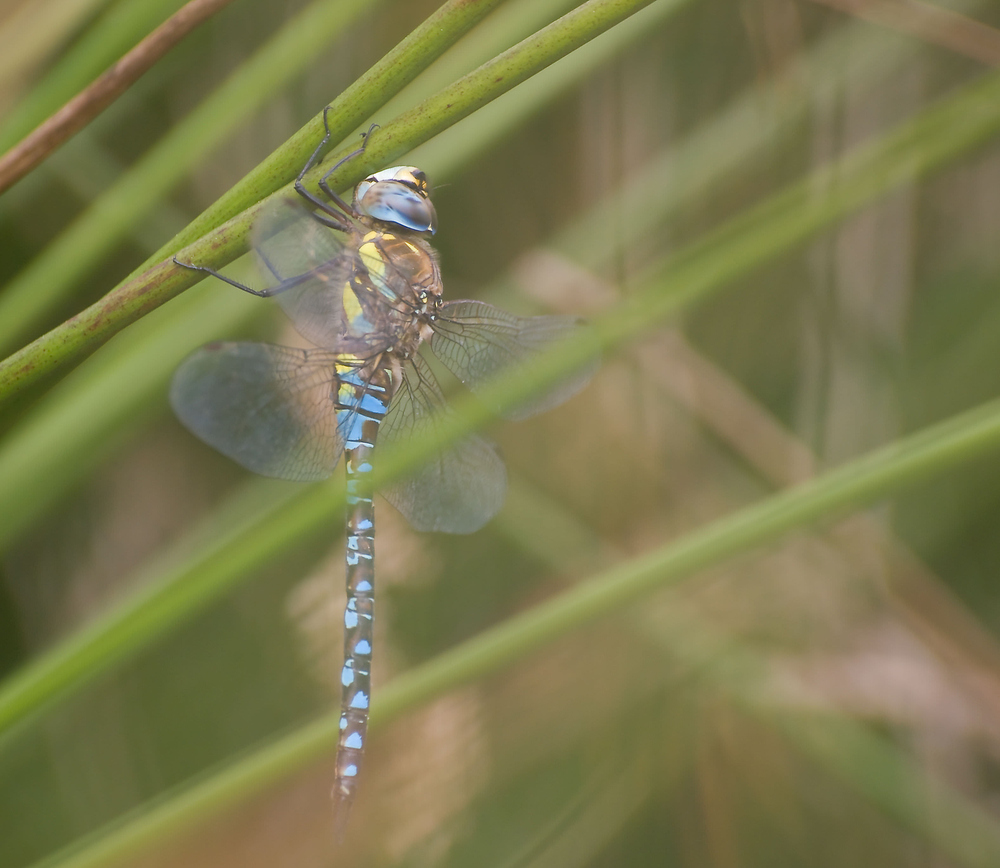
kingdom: Animalia
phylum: Arthropoda
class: Insecta
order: Odonata
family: Aeshnidae
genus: Aeshna
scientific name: Aeshna mixta
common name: Migrant hawker
